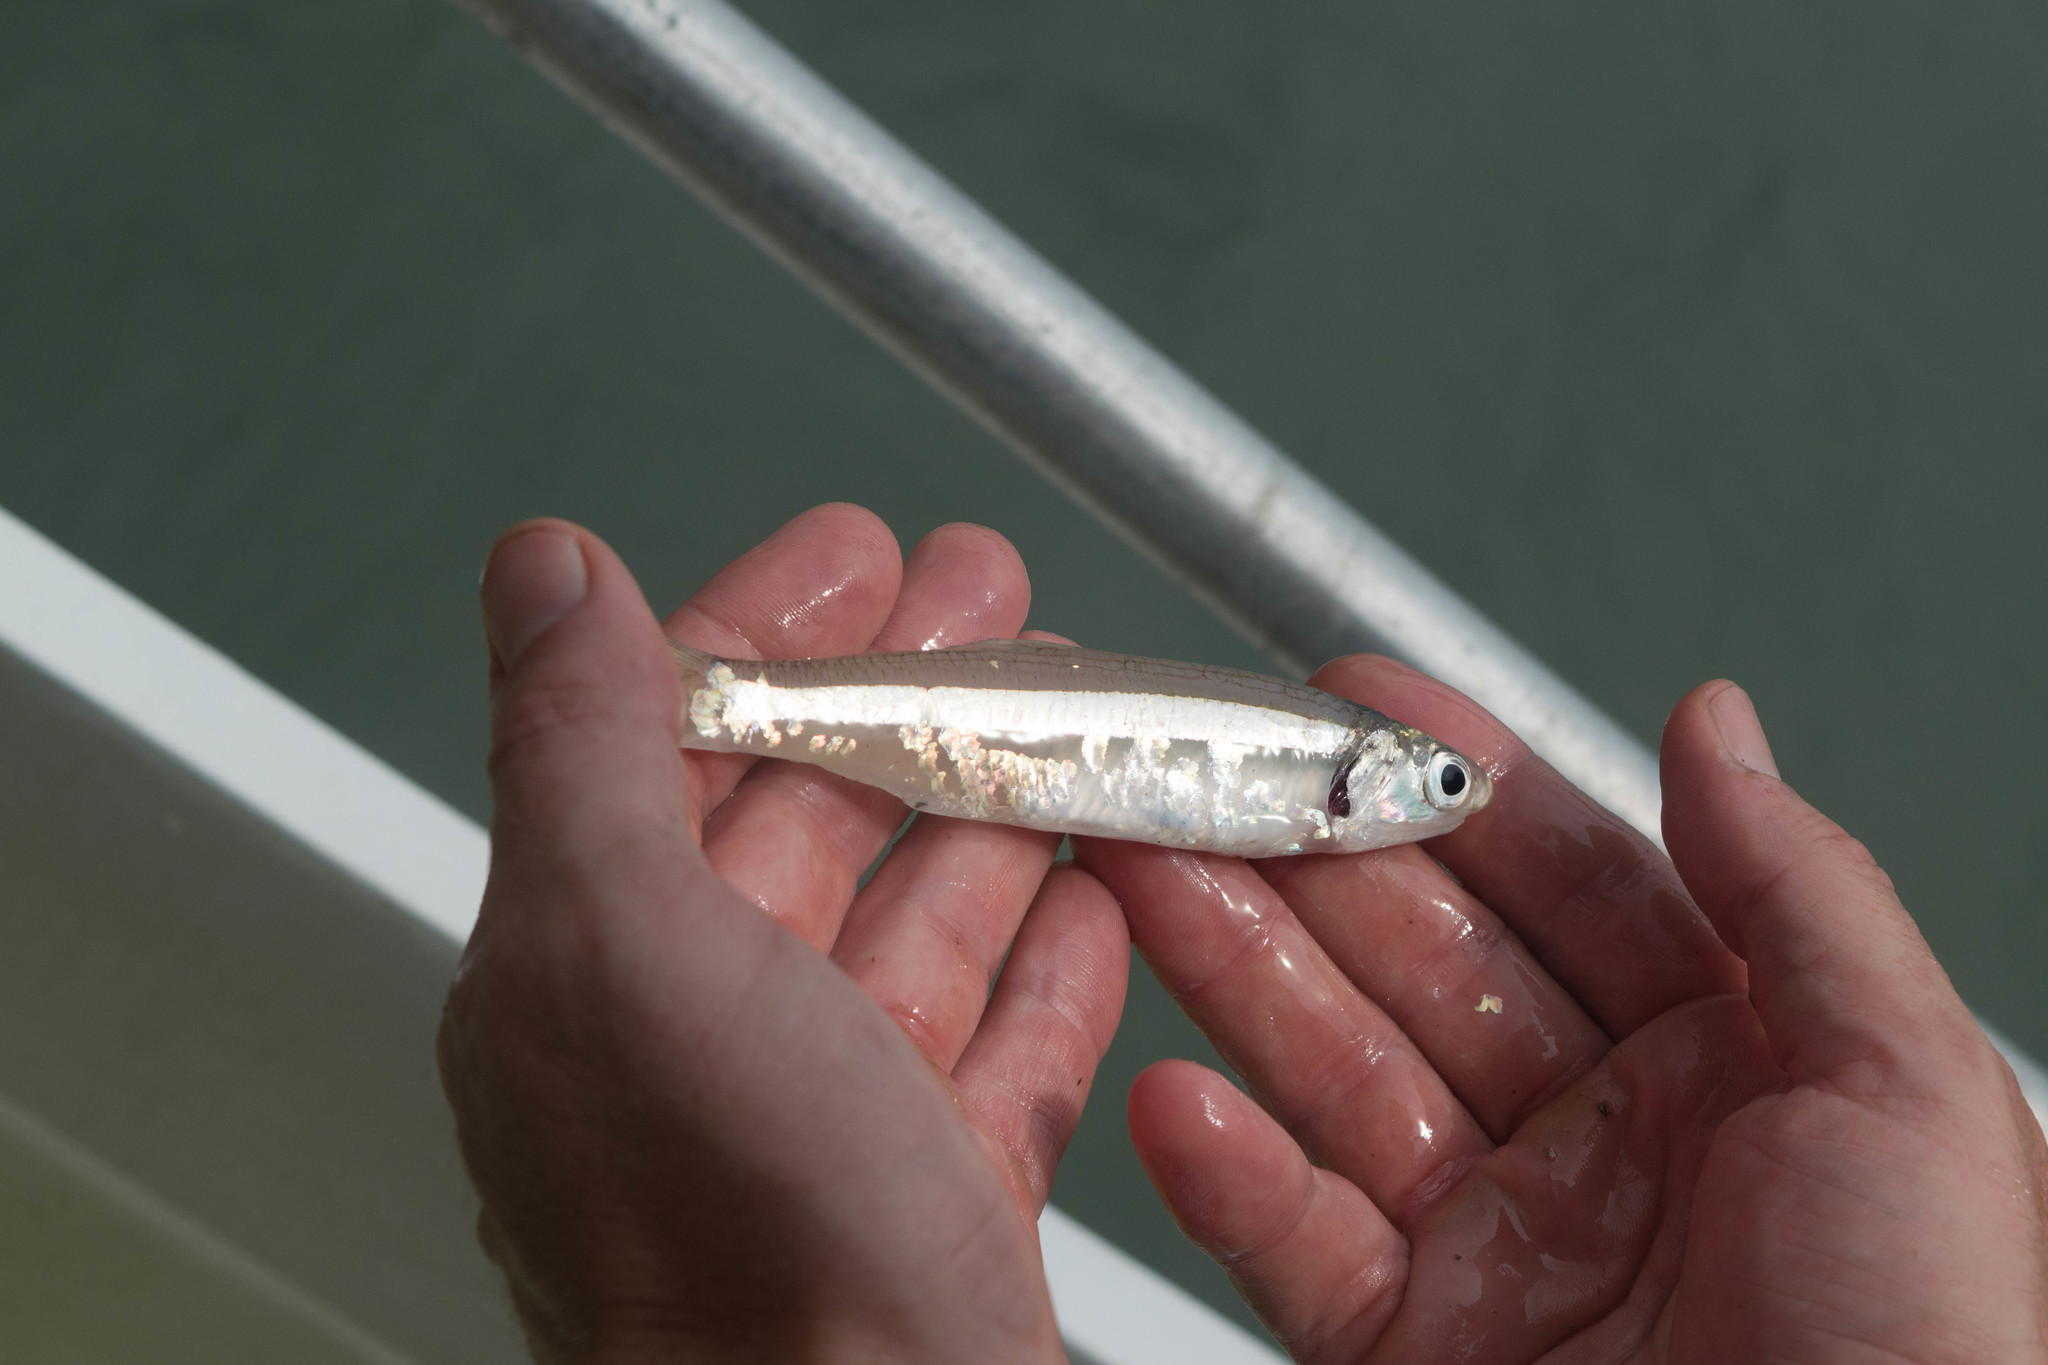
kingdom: Animalia
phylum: Chordata
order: Clupeiformes
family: Engraulidae
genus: Anchoa
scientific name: Anchoa hepsetus
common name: Striped anchovy
